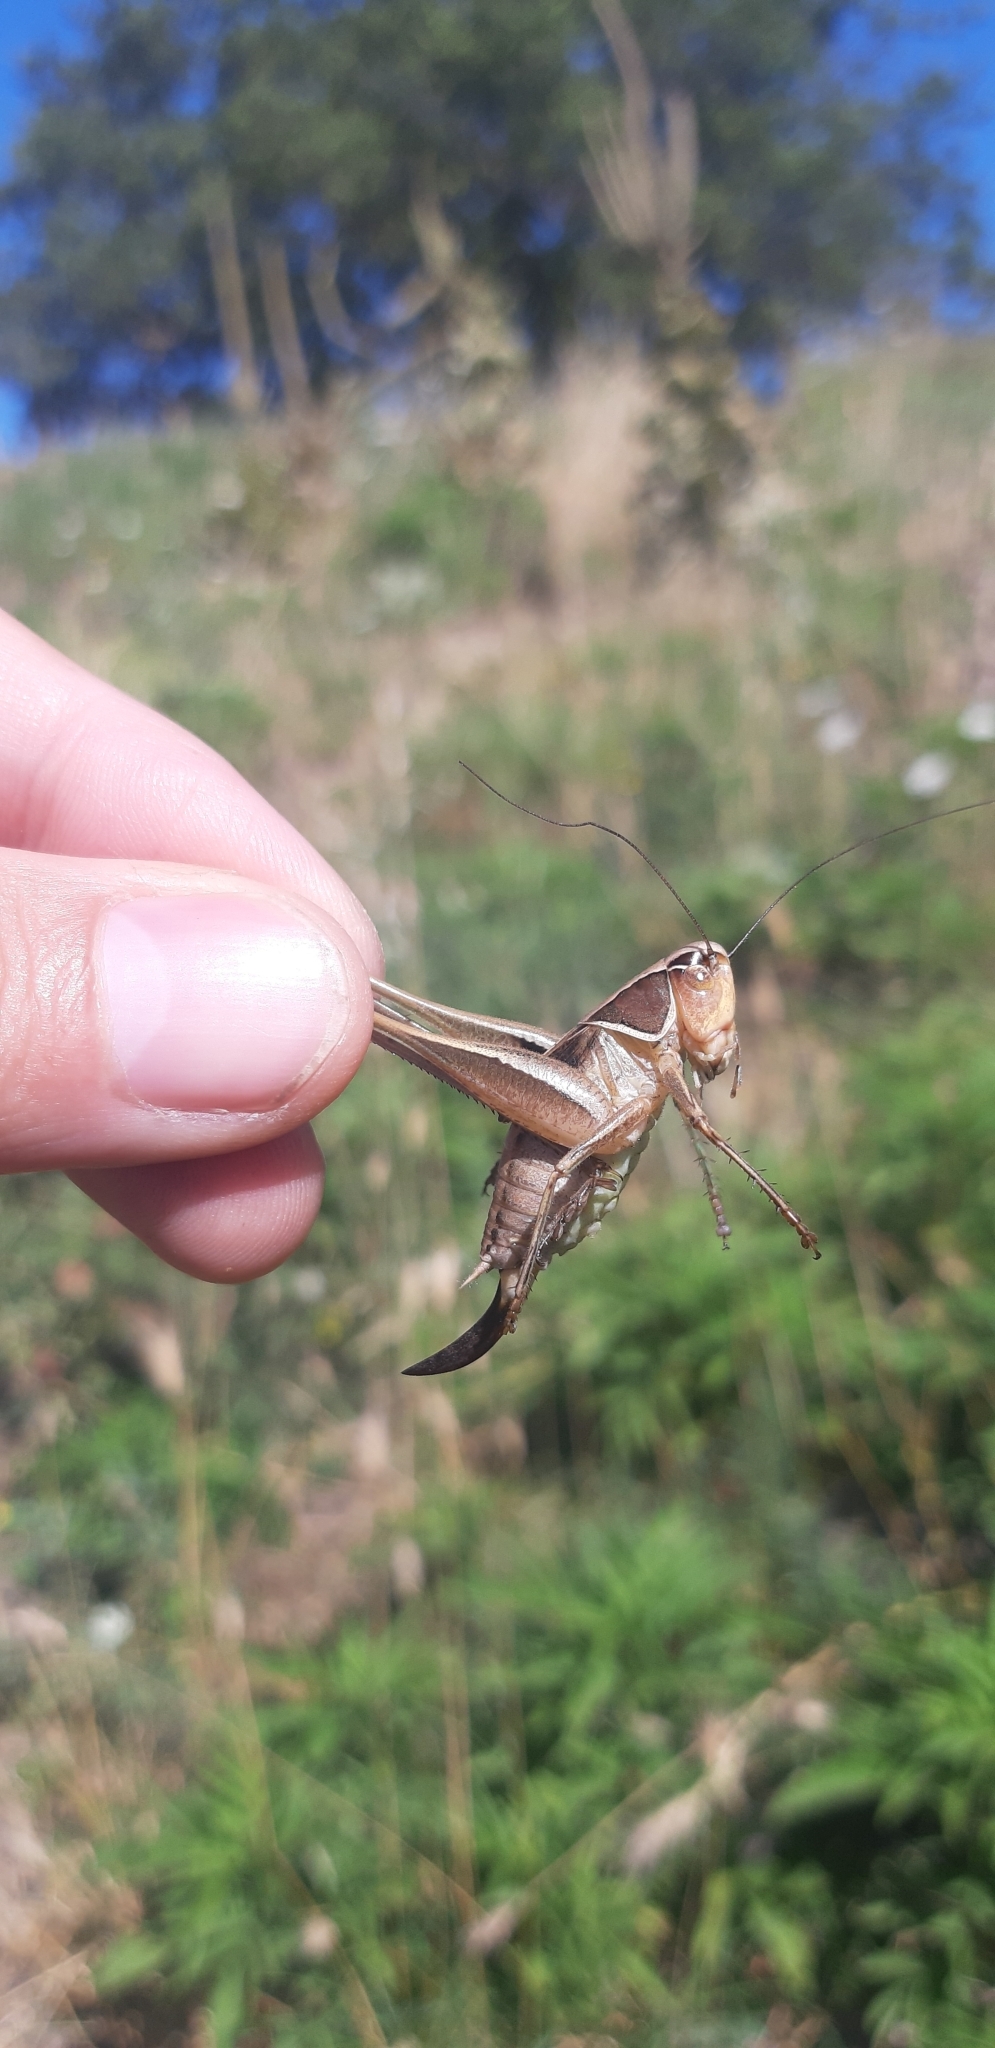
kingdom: Animalia
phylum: Arthropoda
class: Insecta
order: Orthoptera
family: Tettigoniidae
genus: Sepiana
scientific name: Sepiana sepium
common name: Sepia bush-cricket
